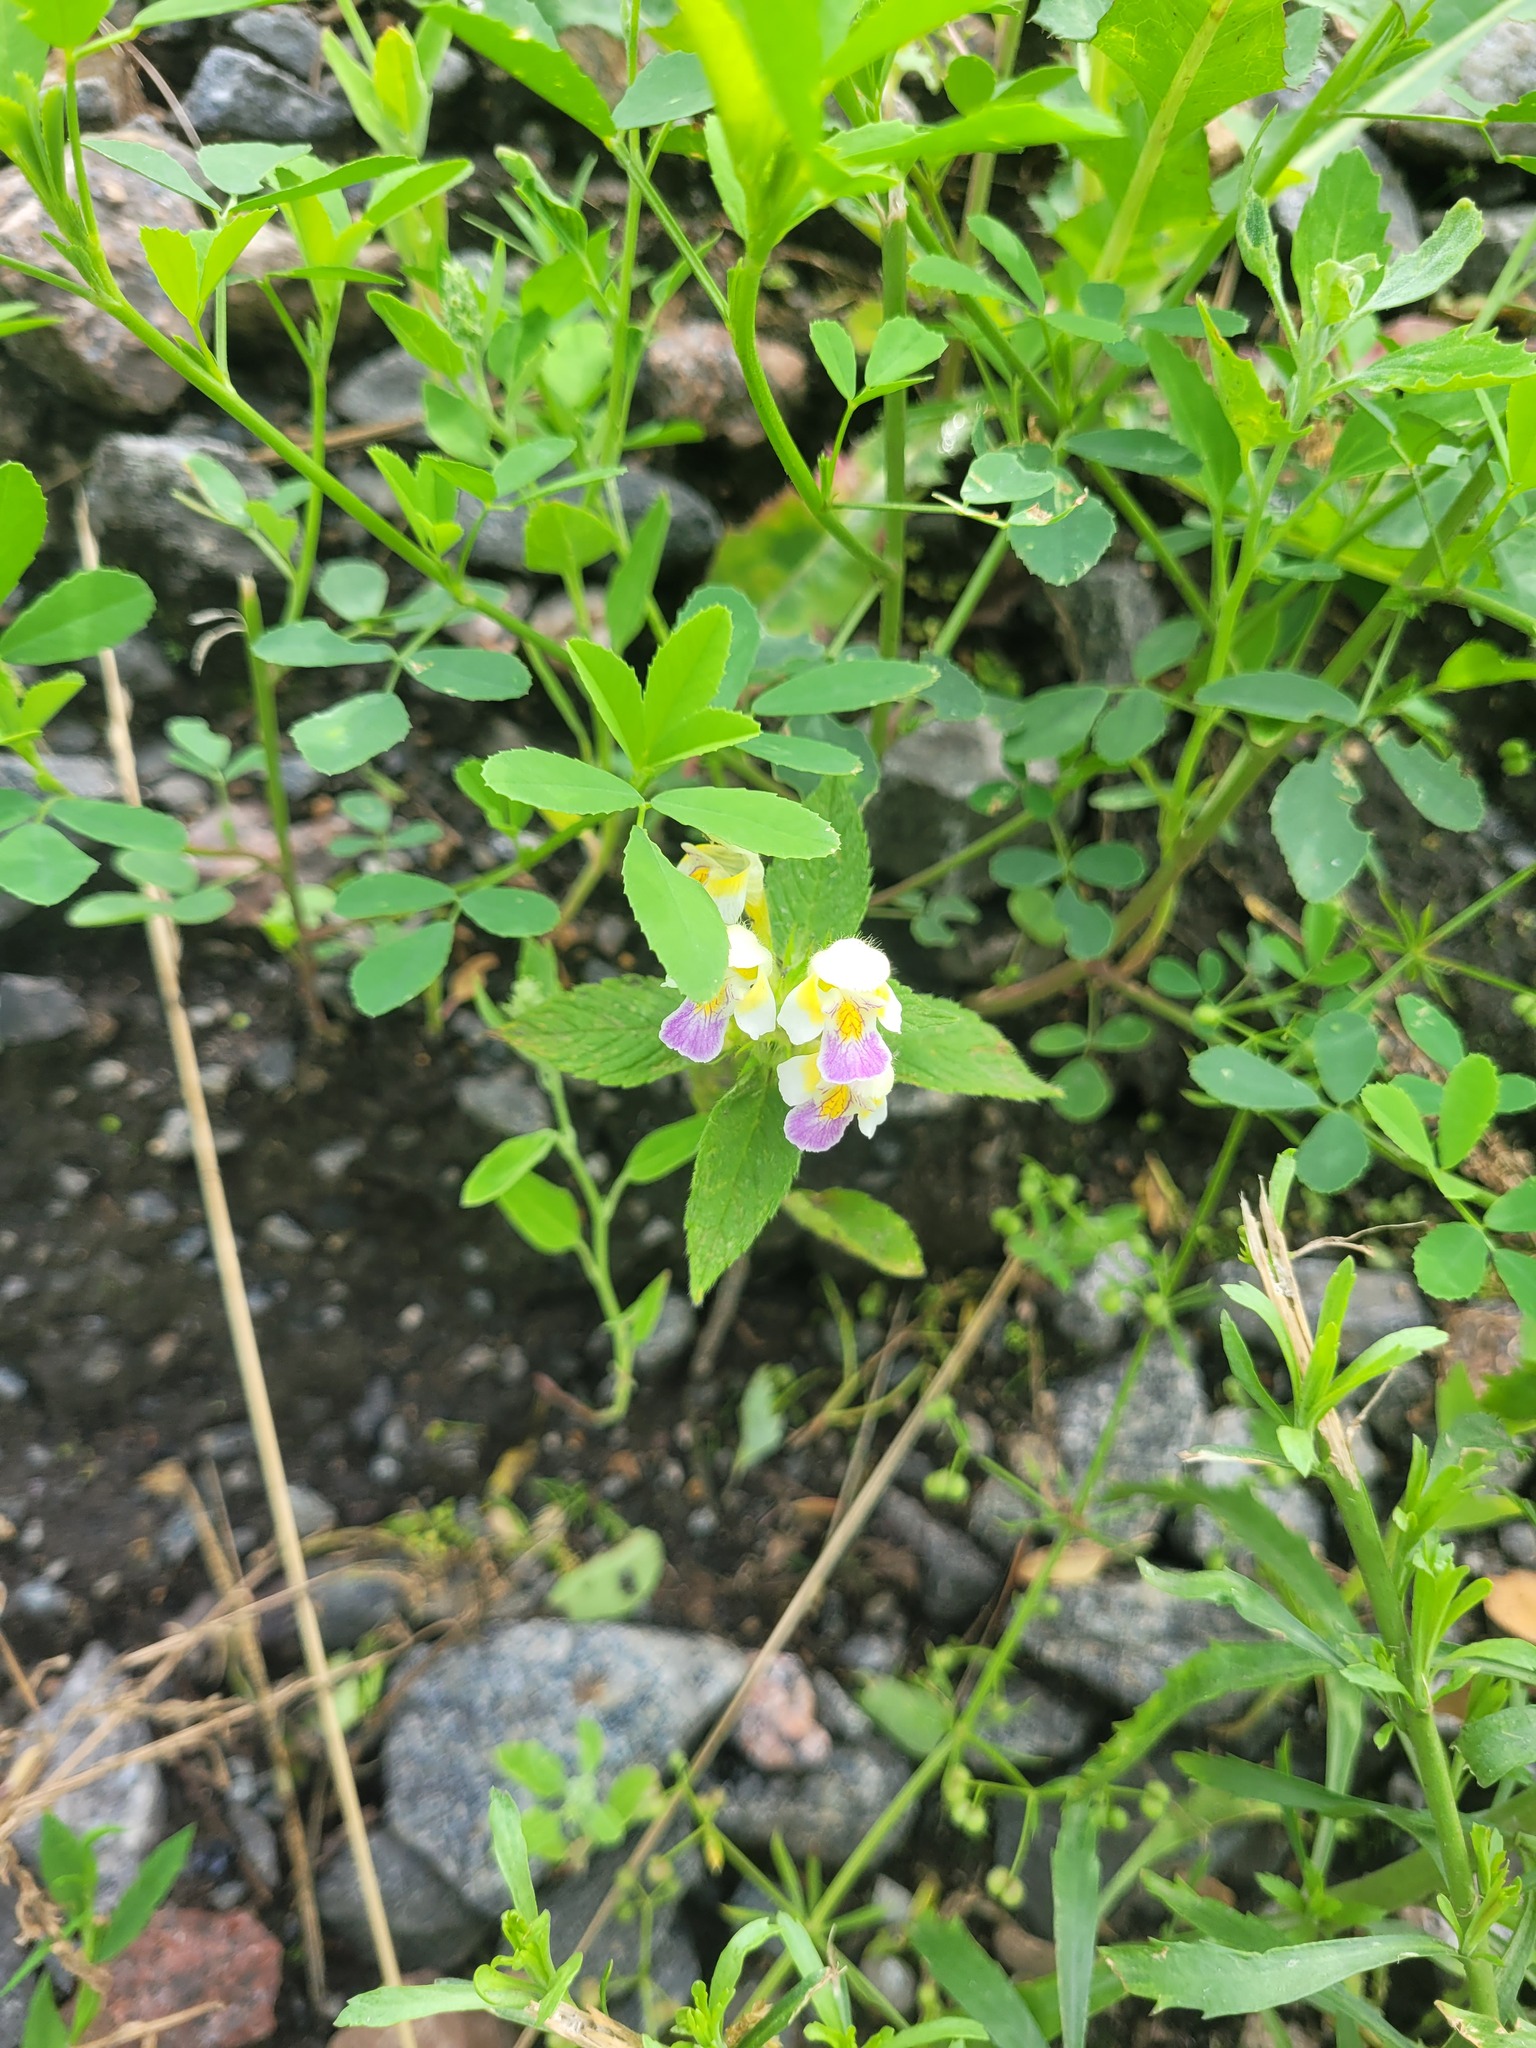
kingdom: Plantae
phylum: Tracheophyta
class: Magnoliopsida
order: Lamiales
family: Lamiaceae
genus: Galeopsis
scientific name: Galeopsis speciosa
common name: Large-flowered hemp-nettle
